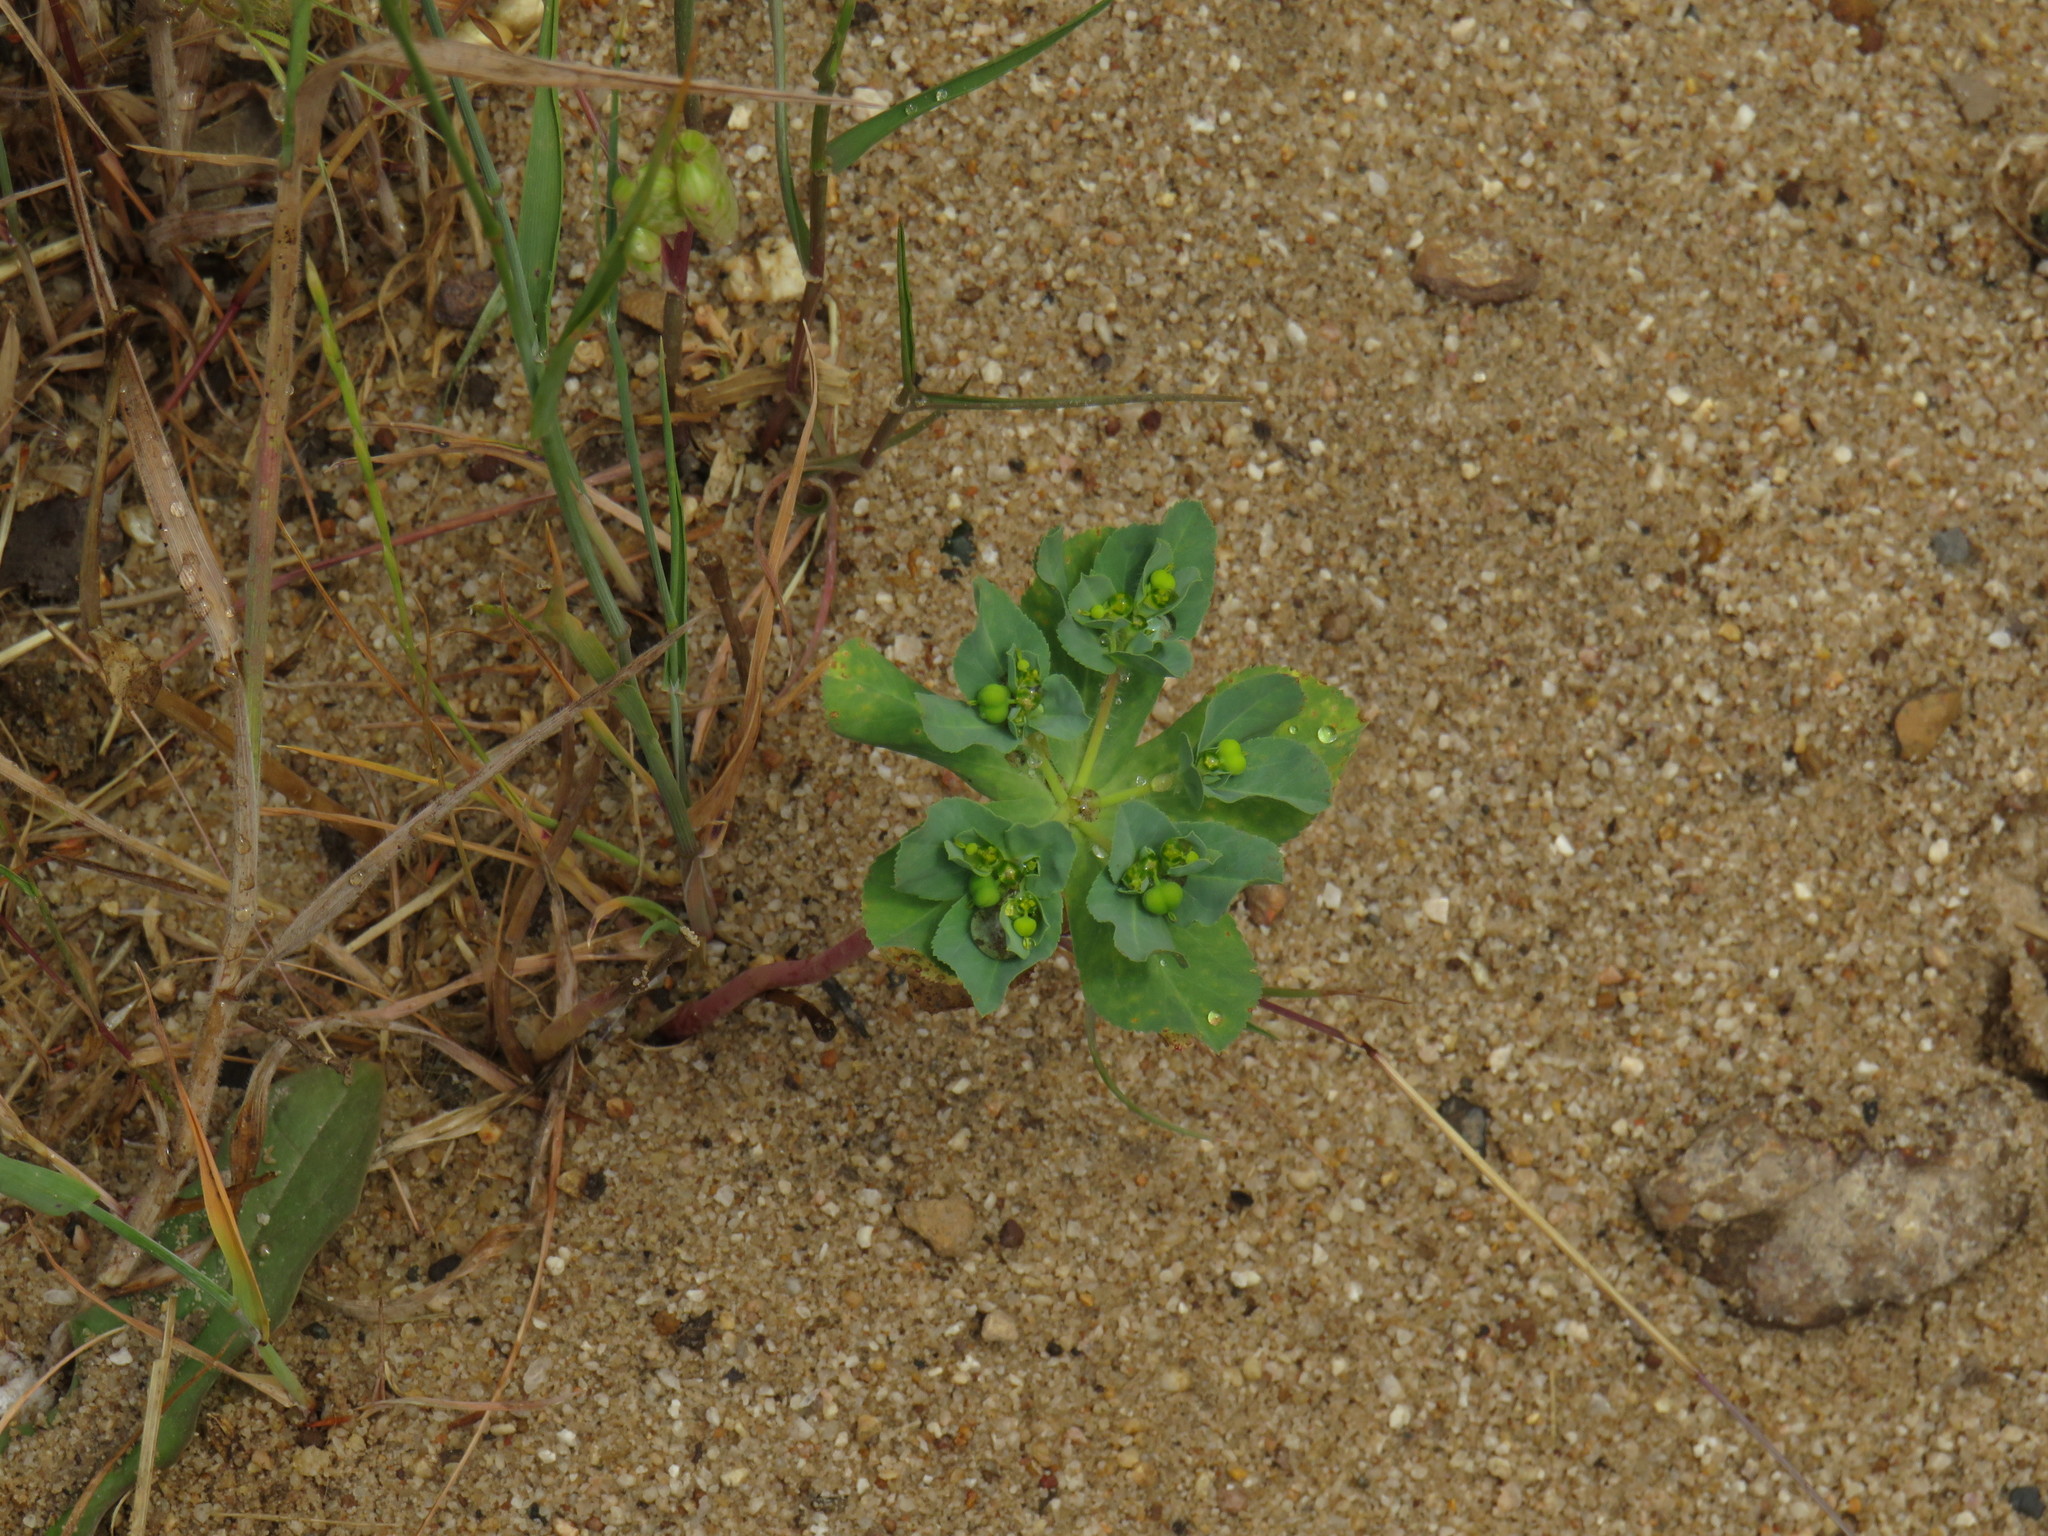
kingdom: Plantae
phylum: Tracheophyta
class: Magnoliopsida
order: Malpighiales
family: Euphorbiaceae
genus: Euphorbia
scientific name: Euphorbia helioscopia
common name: Sun spurge
